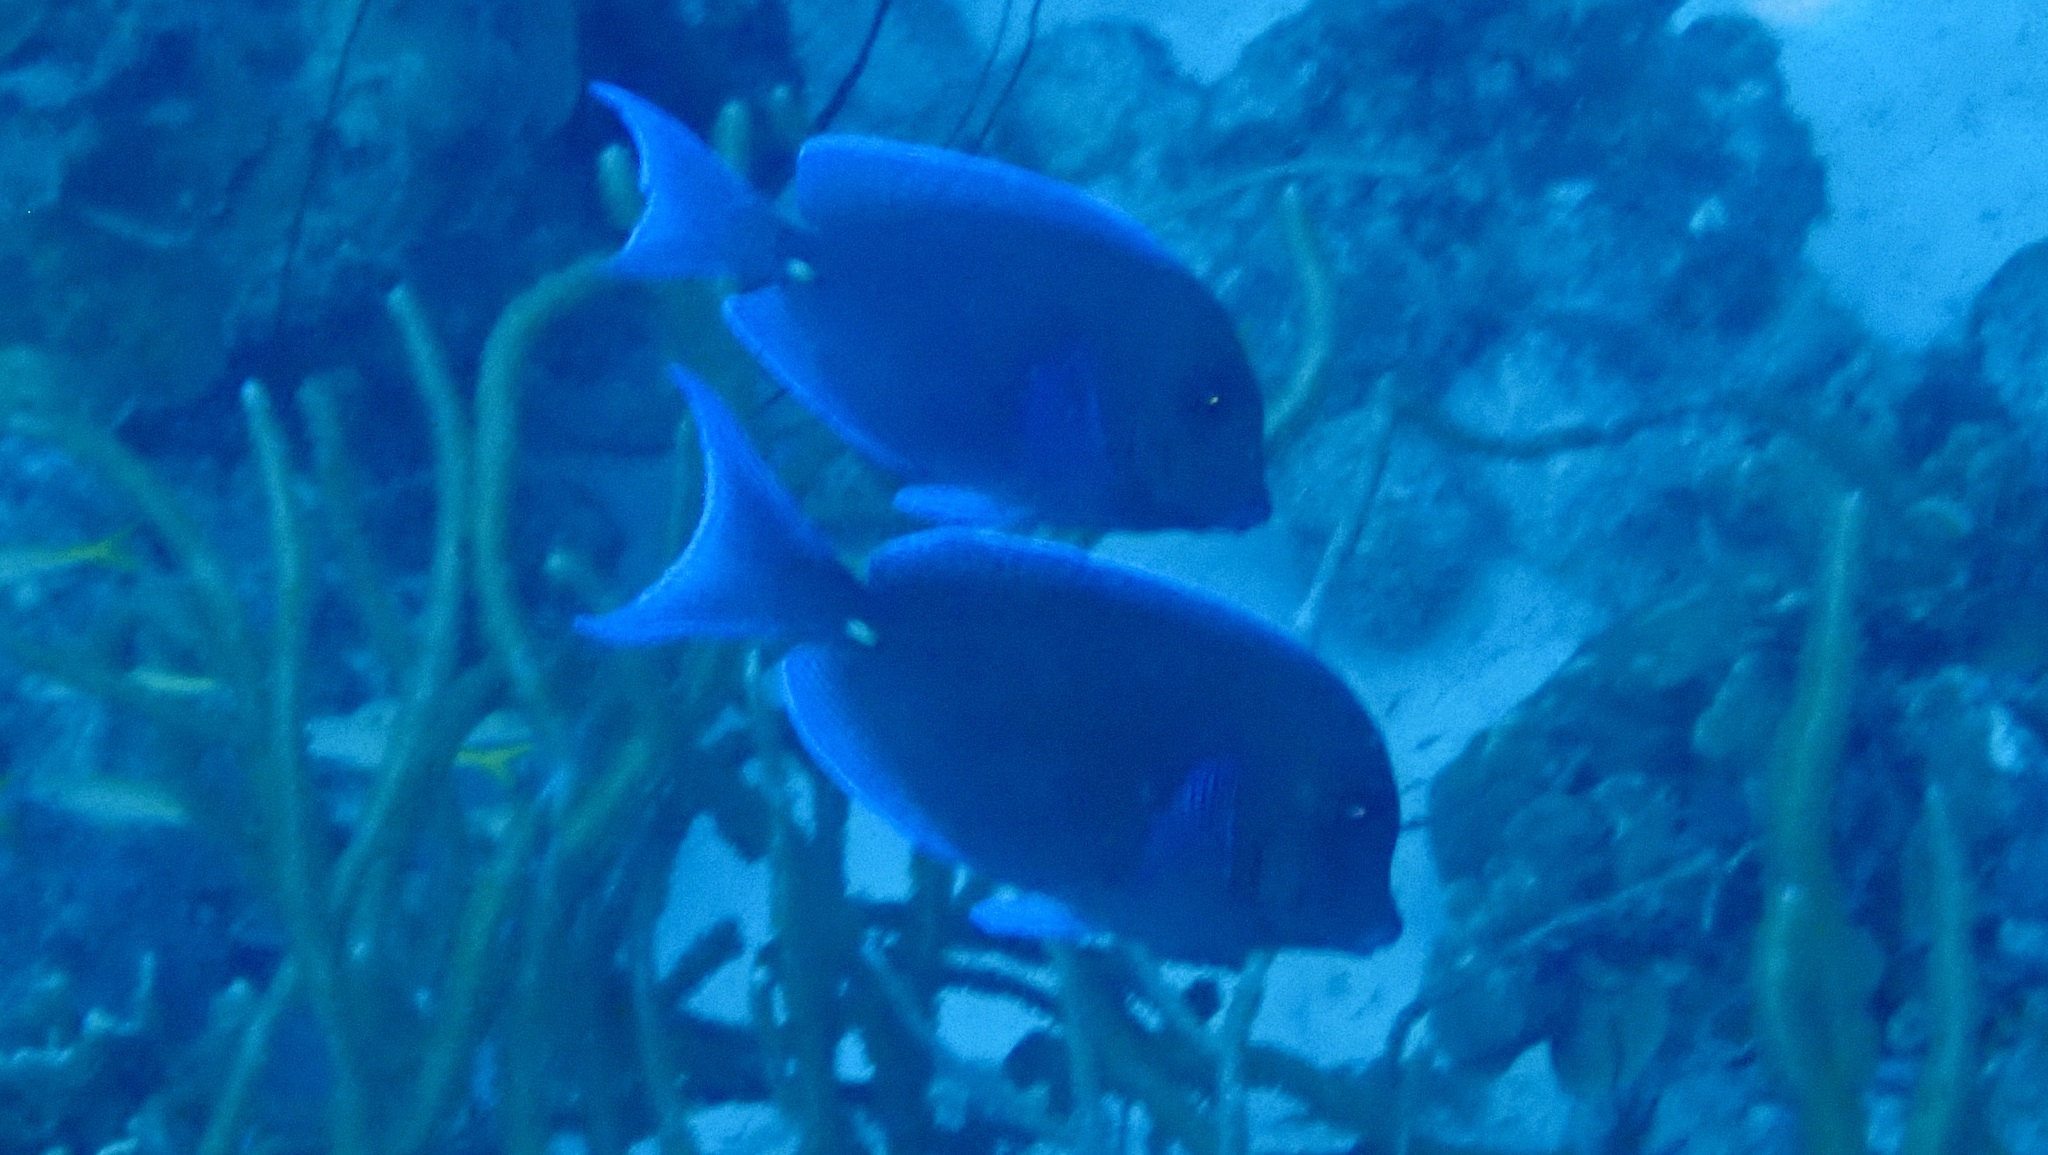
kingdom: Animalia
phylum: Chordata
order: Perciformes
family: Acanthuridae
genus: Acanthurus
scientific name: Acanthurus coeruleus
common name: Blue tang
